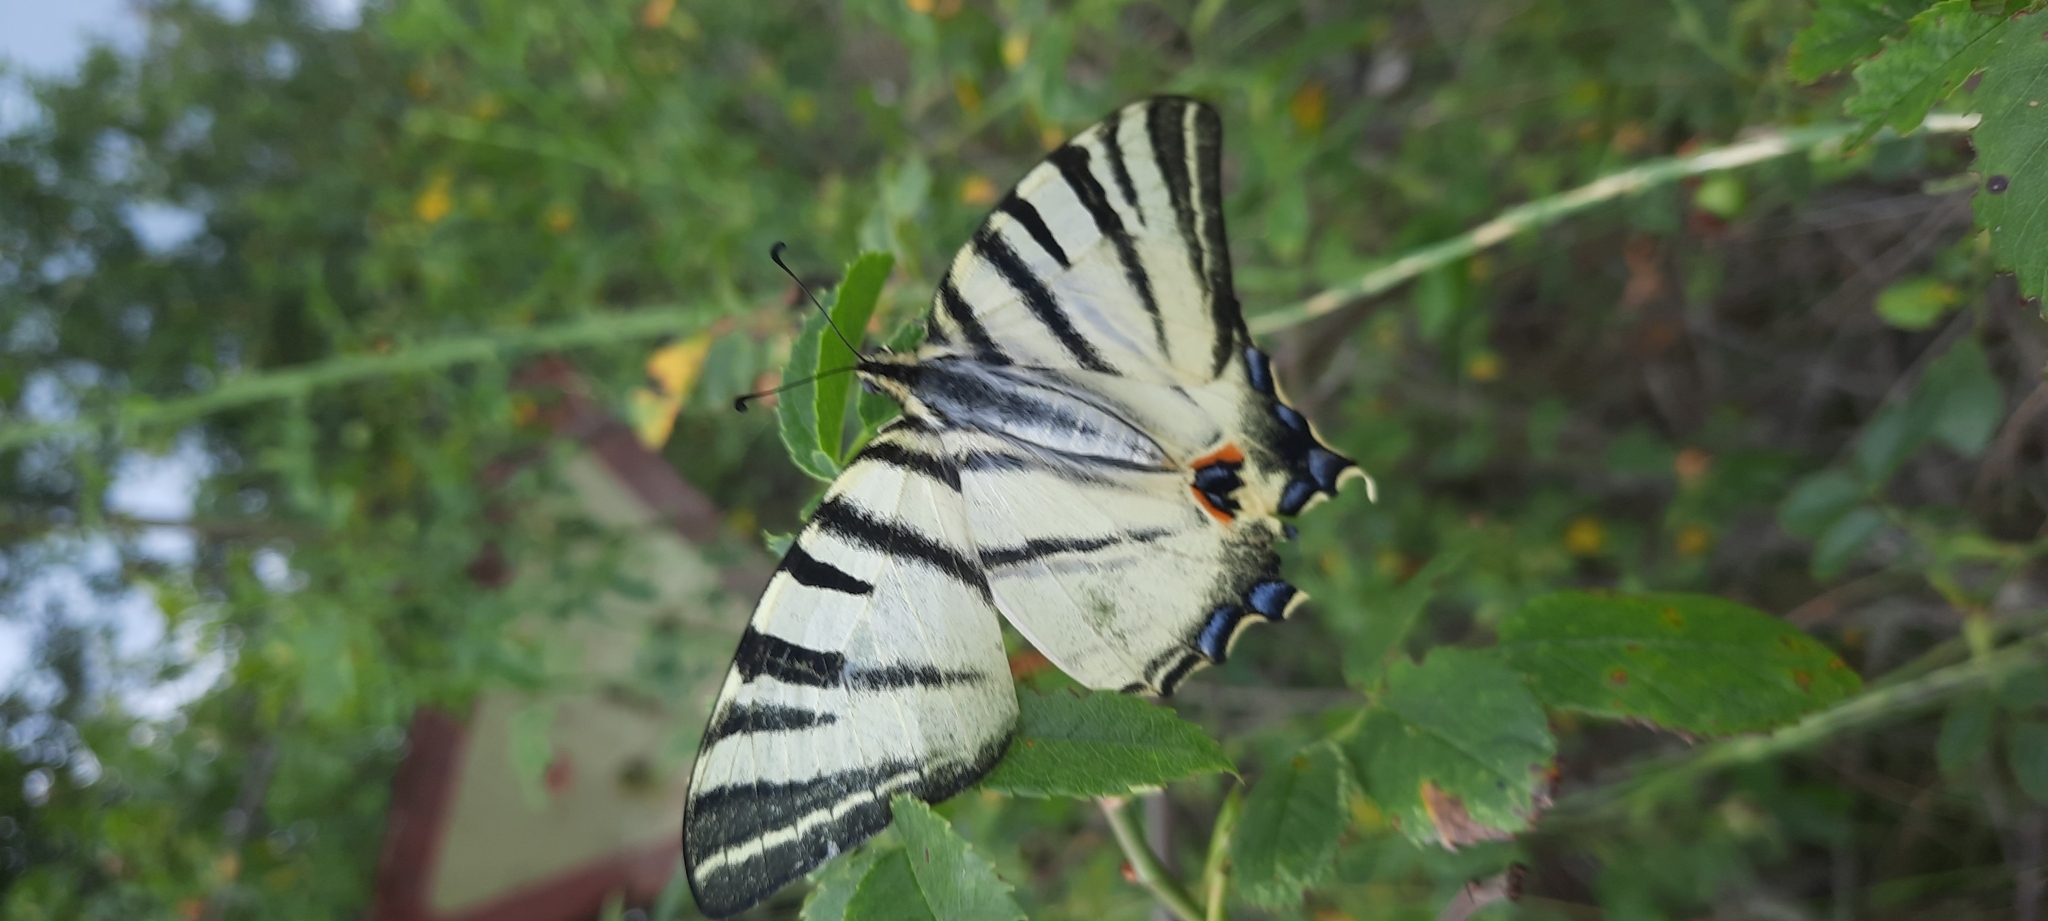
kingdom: Animalia
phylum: Arthropoda
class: Insecta
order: Lepidoptera
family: Papilionidae
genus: Iphiclides
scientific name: Iphiclides podalirius
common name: Scarce swallowtail
